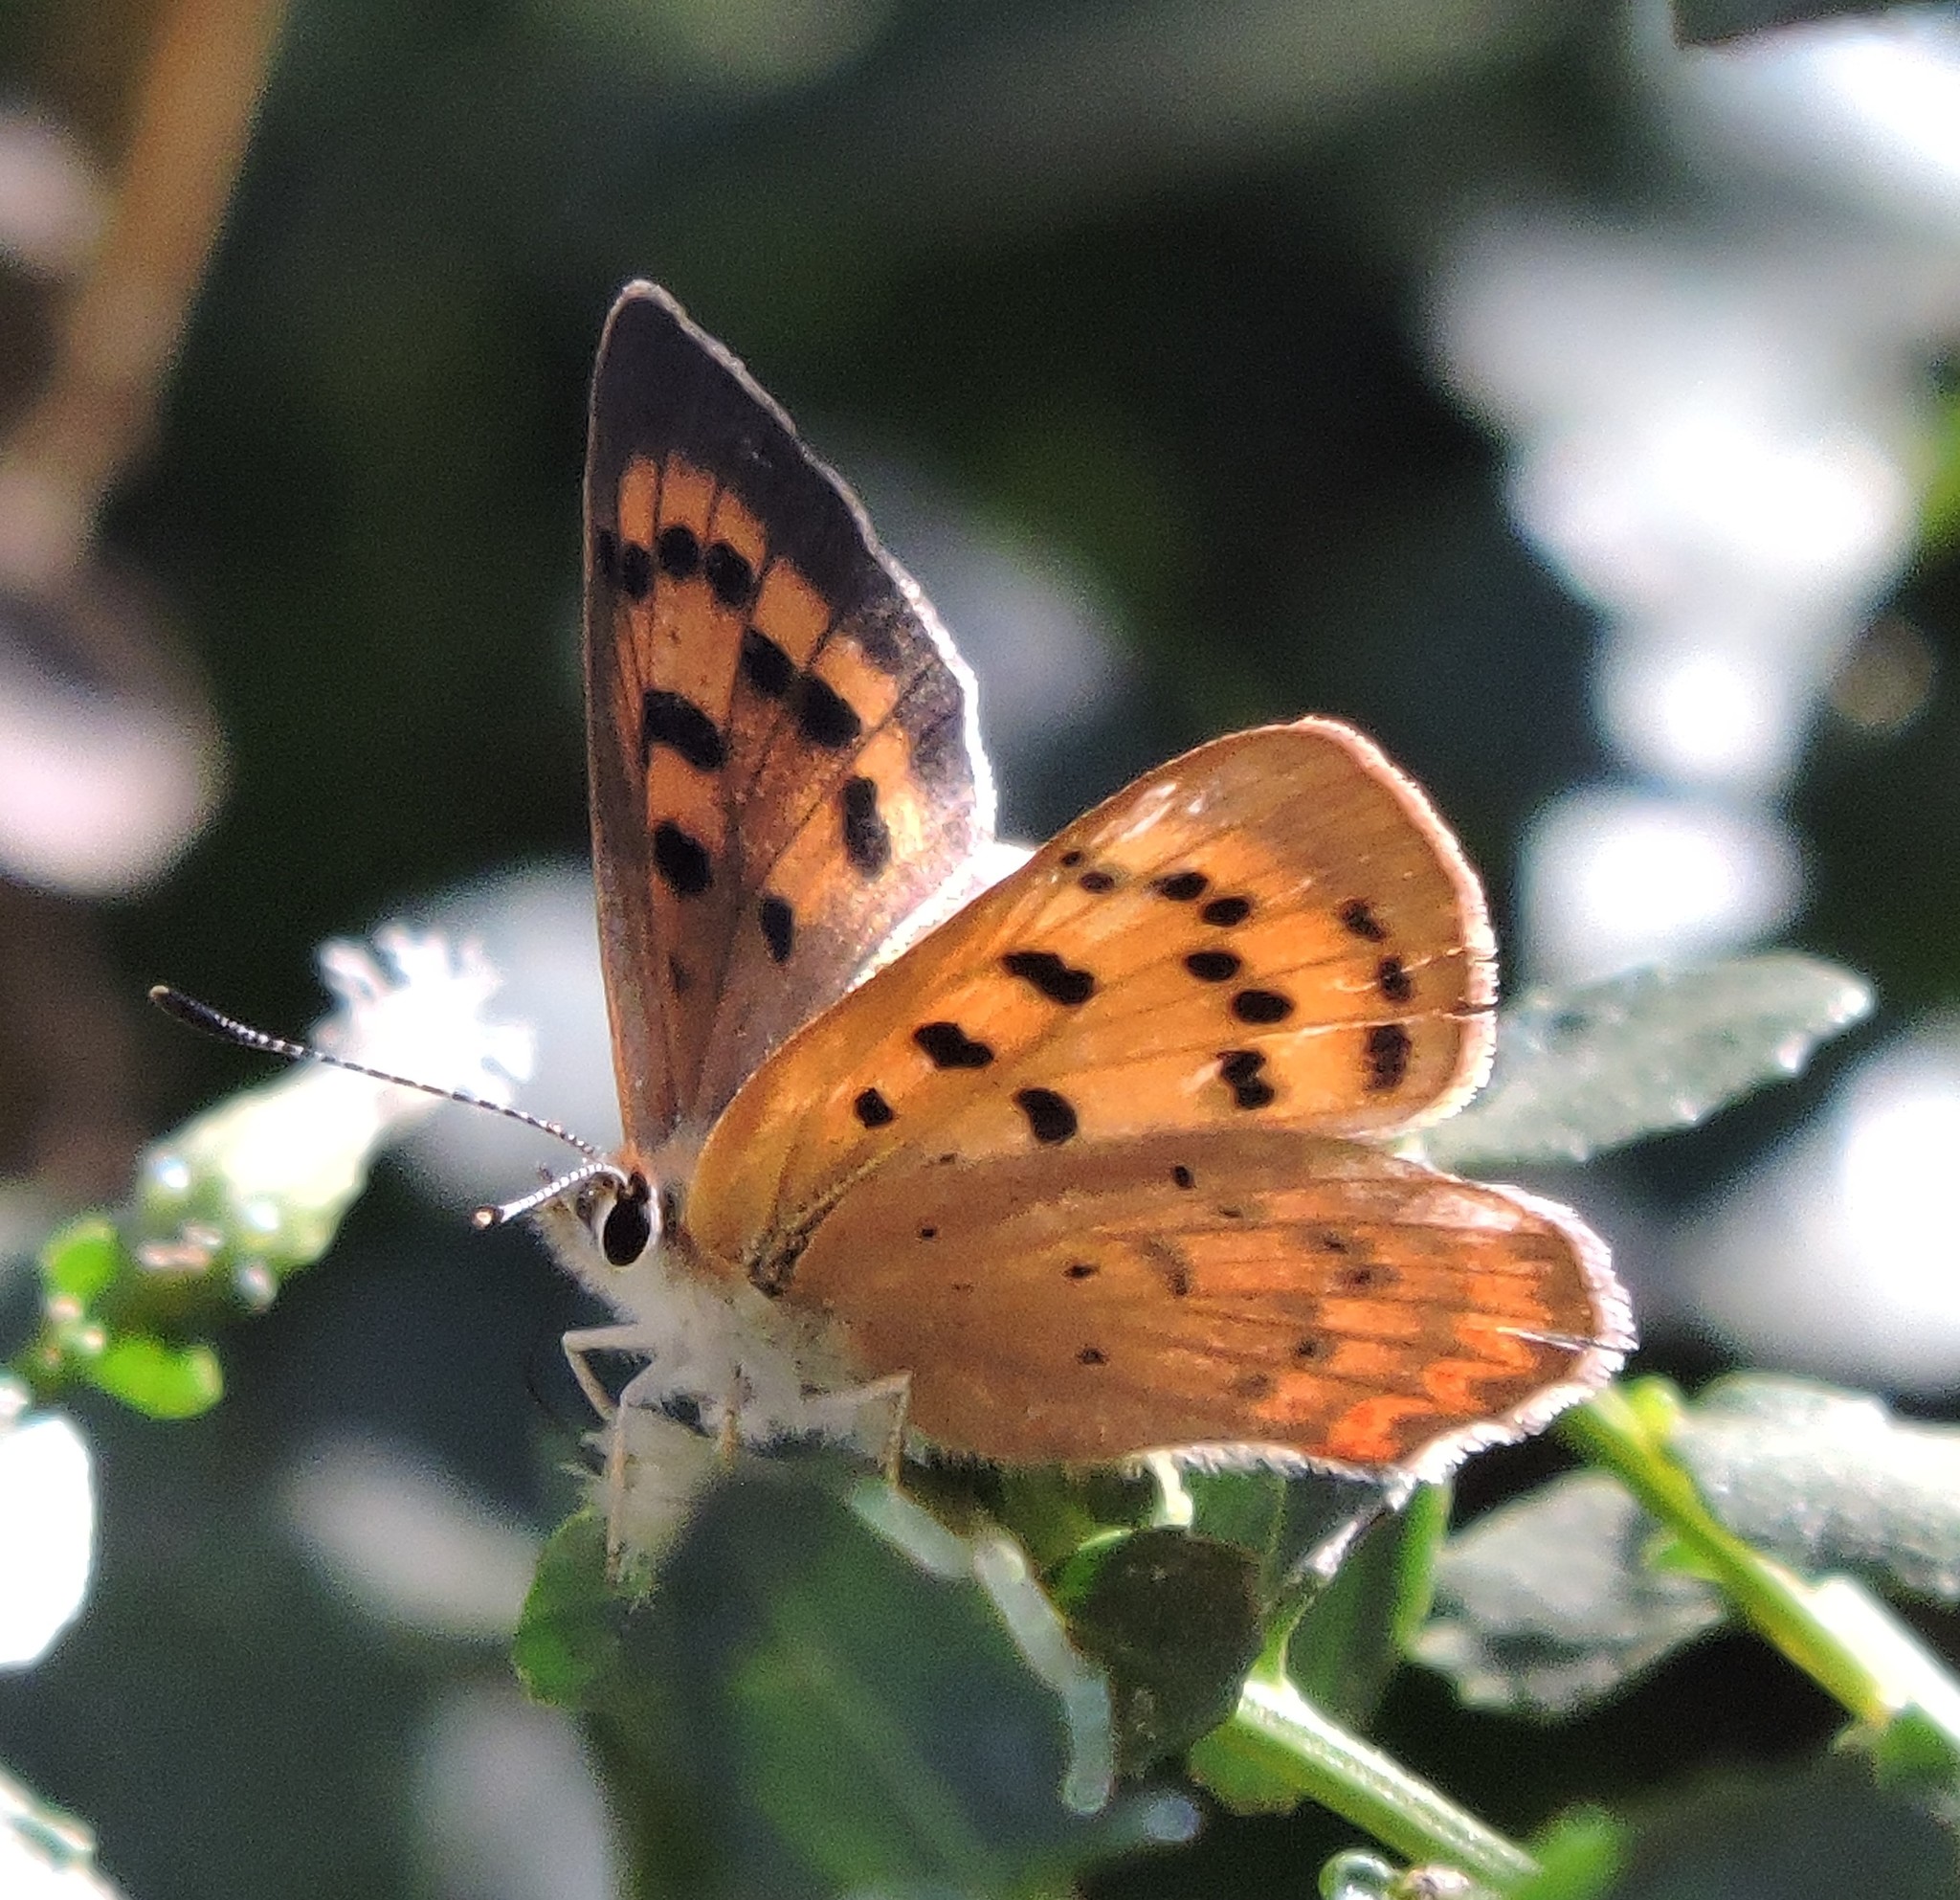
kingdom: Animalia
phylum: Arthropoda
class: Insecta
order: Lepidoptera
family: Lycaenidae
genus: Tharsalea
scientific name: Tharsalea helloides
